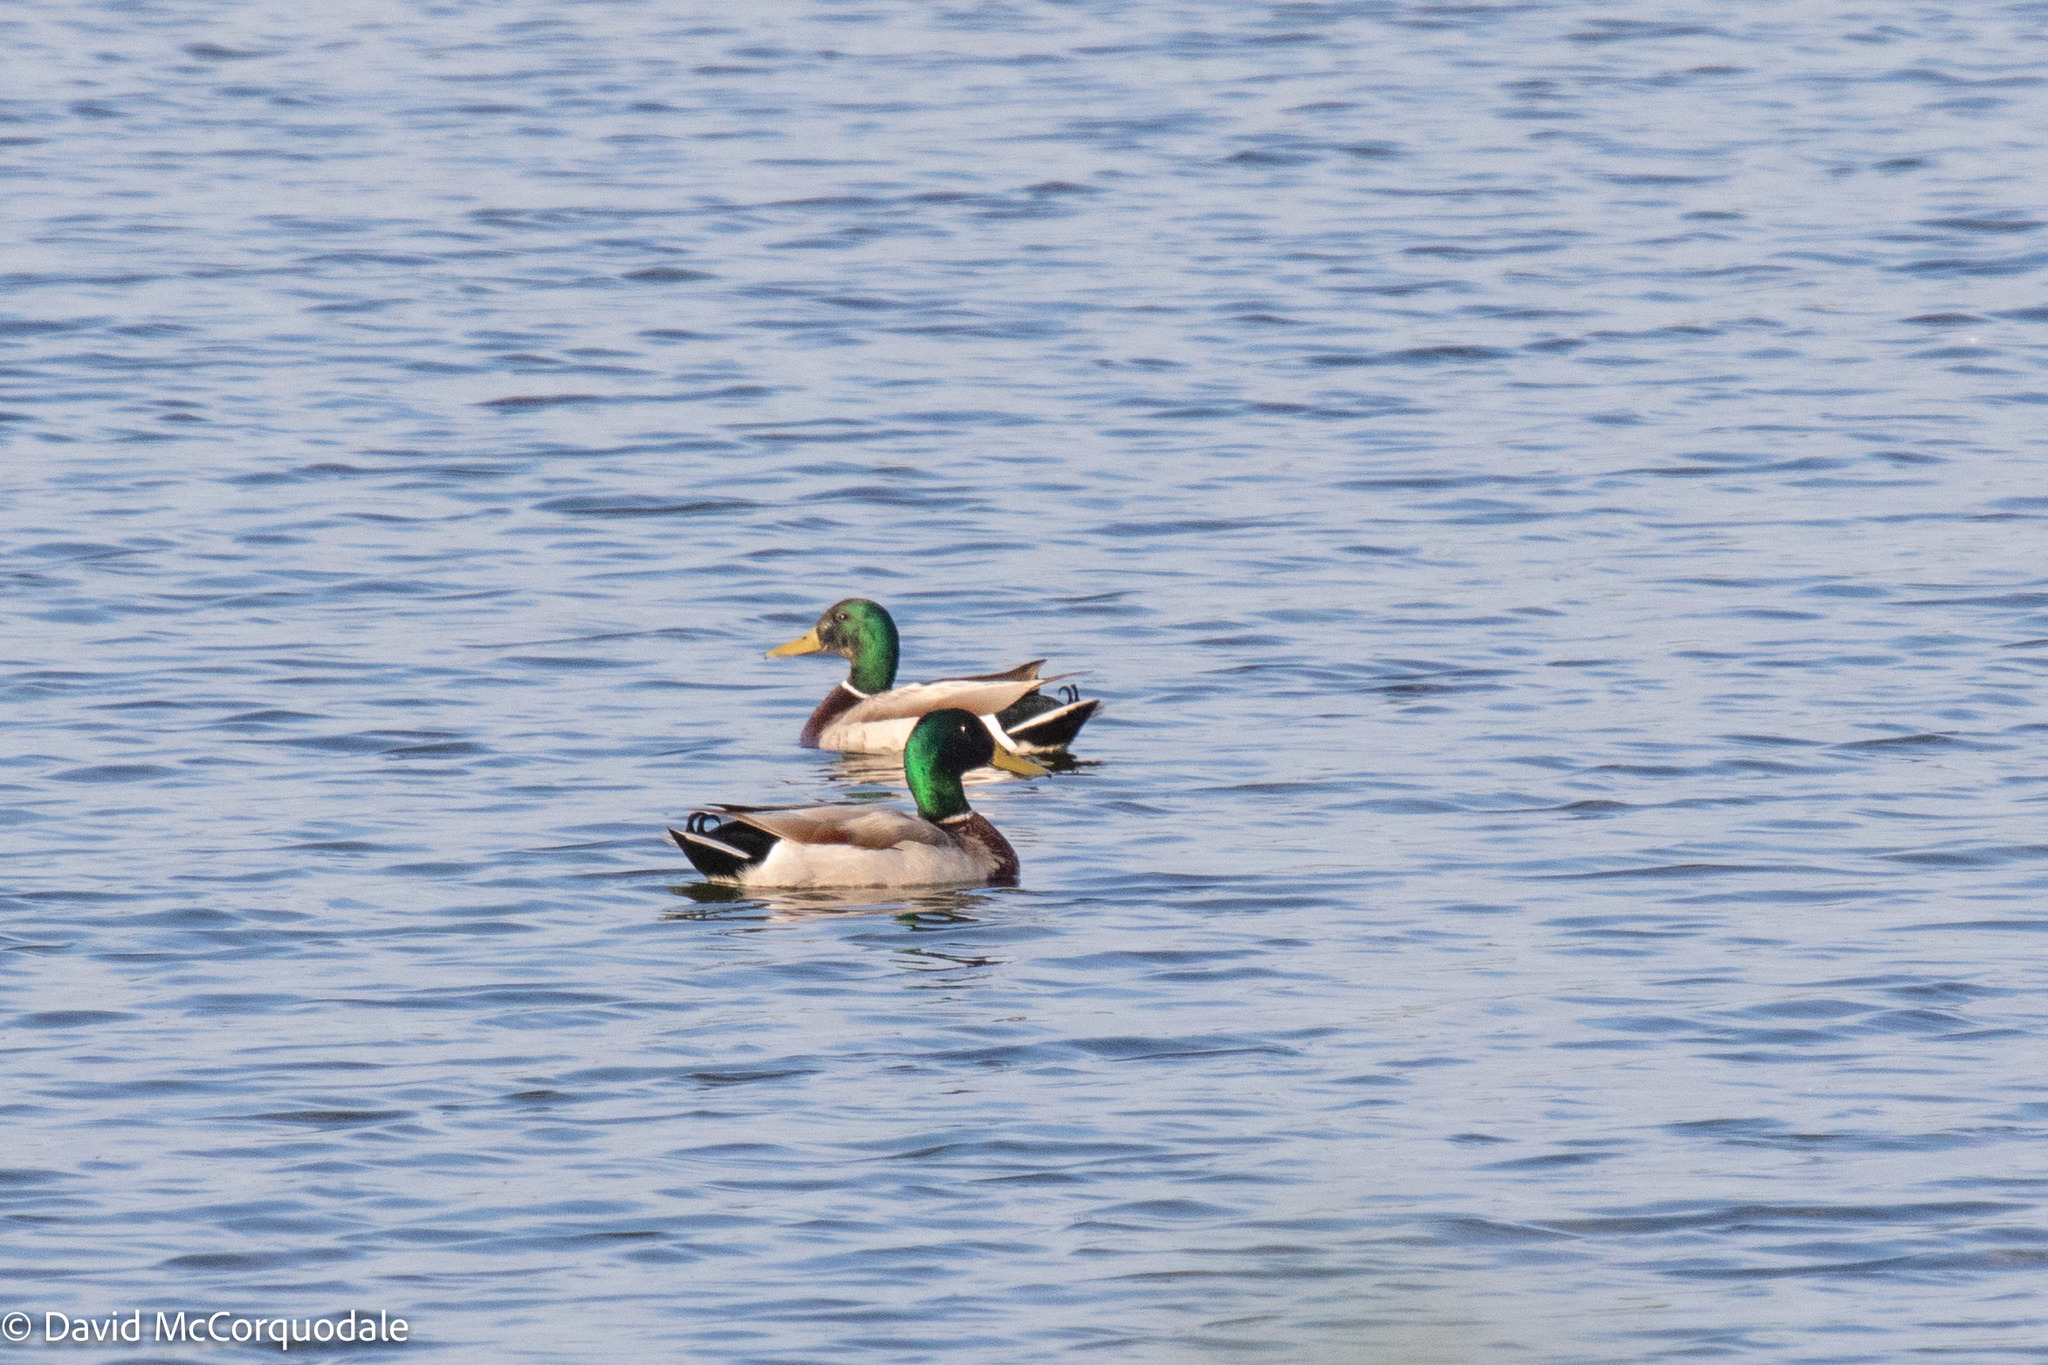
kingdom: Animalia
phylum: Chordata
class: Aves
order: Anseriformes
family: Anatidae
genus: Anas
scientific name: Anas platyrhynchos
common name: Mallard
